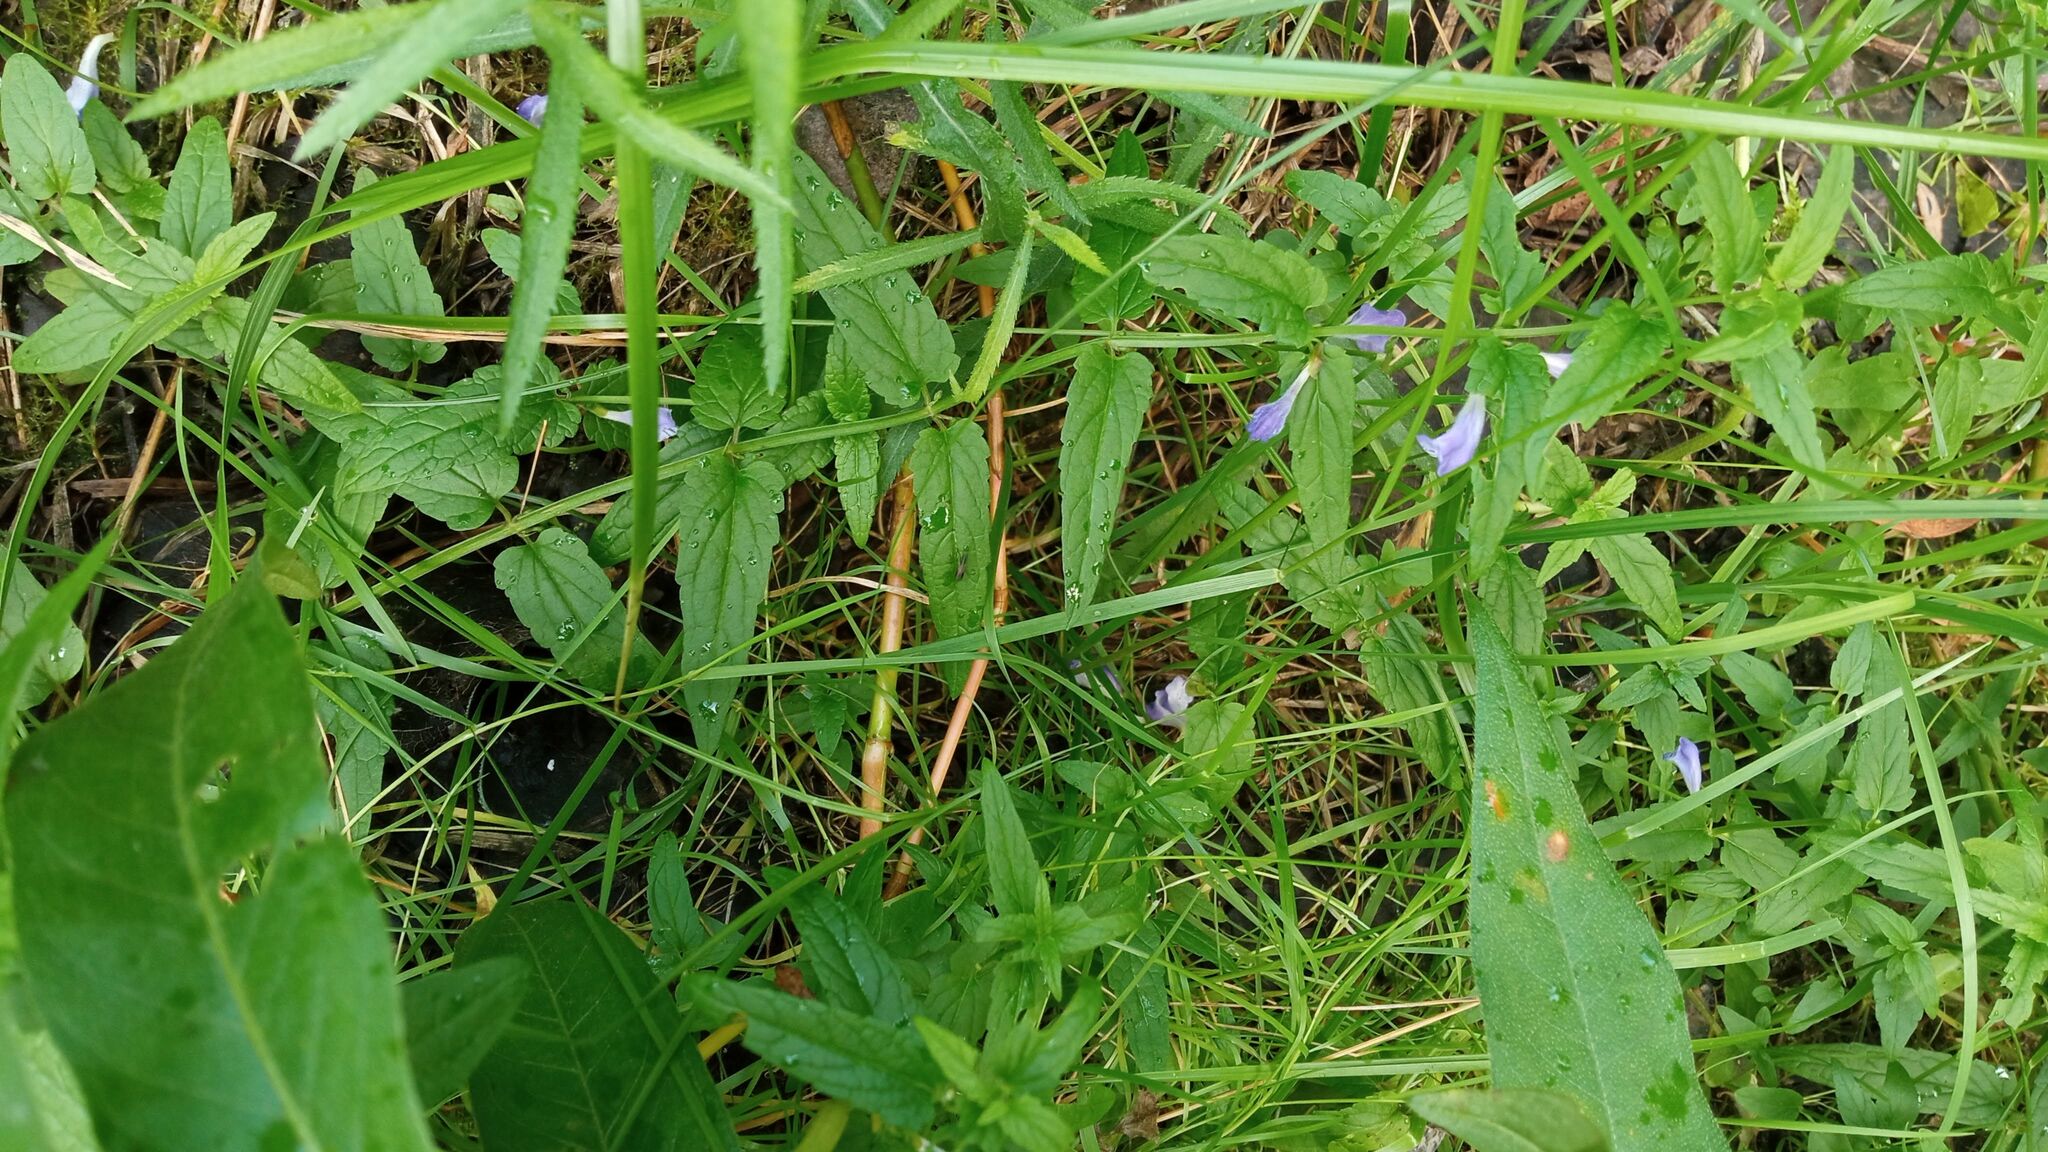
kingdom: Plantae
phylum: Tracheophyta
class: Magnoliopsida
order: Lamiales
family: Lamiaceae
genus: Scutellaria
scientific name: Scutellaria galericulata
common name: Skullcap
